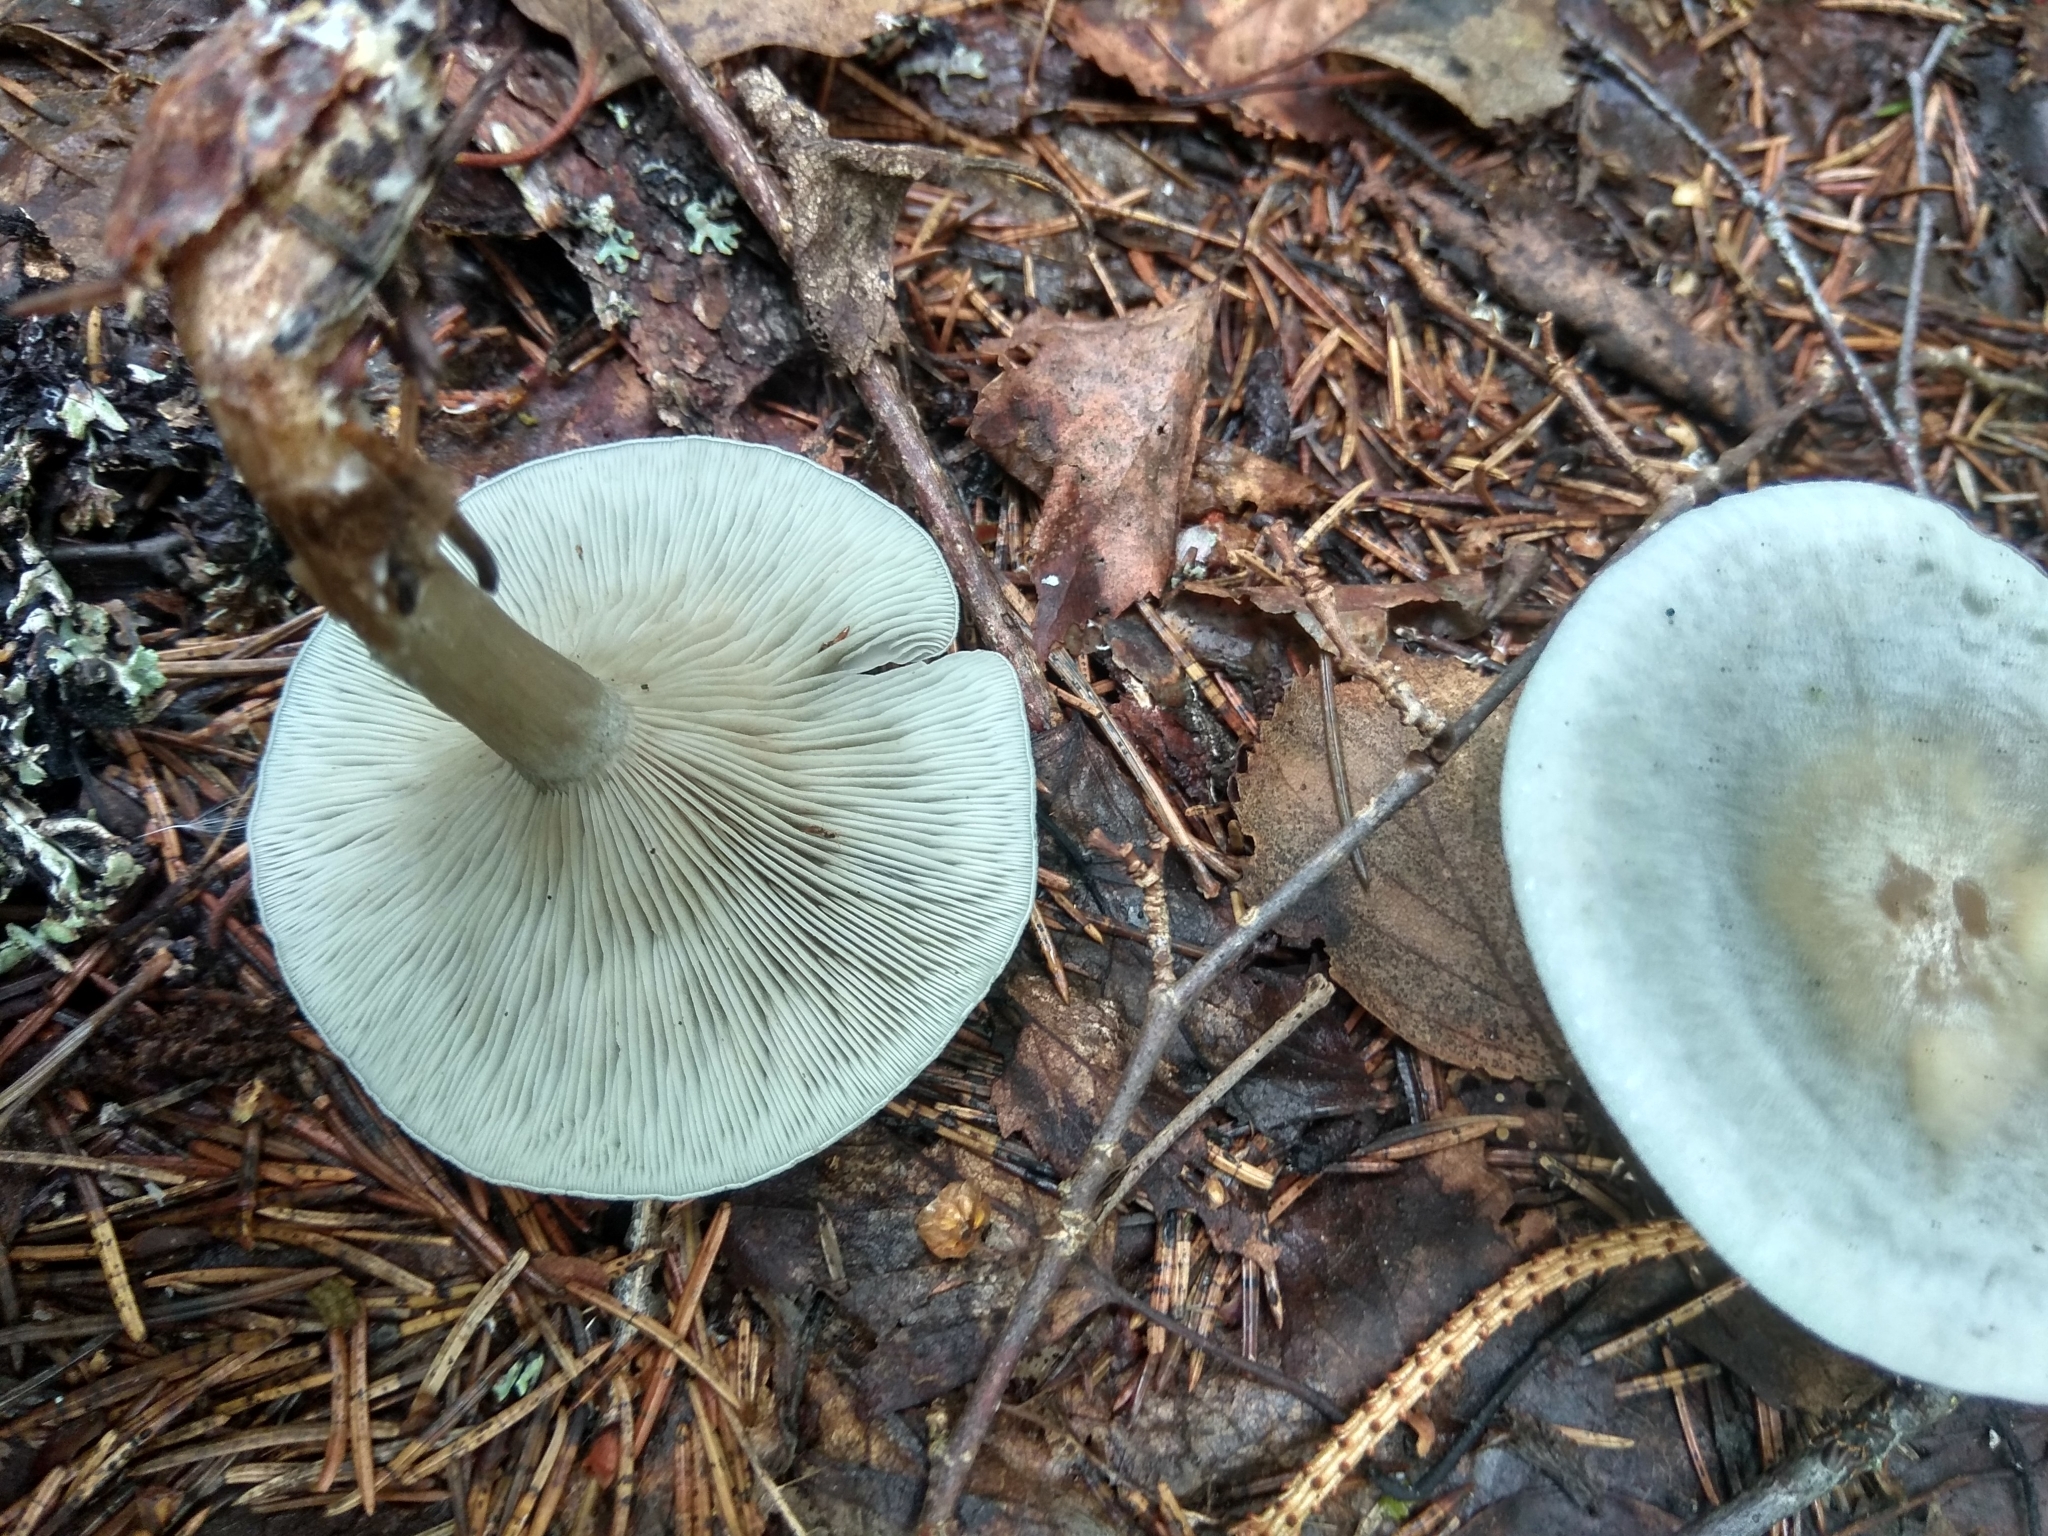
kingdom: Fungi
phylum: Basidiomycota
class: Agaricomycetes
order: Agaricales
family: Tricholomataceae
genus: Collybia
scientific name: Collybia
